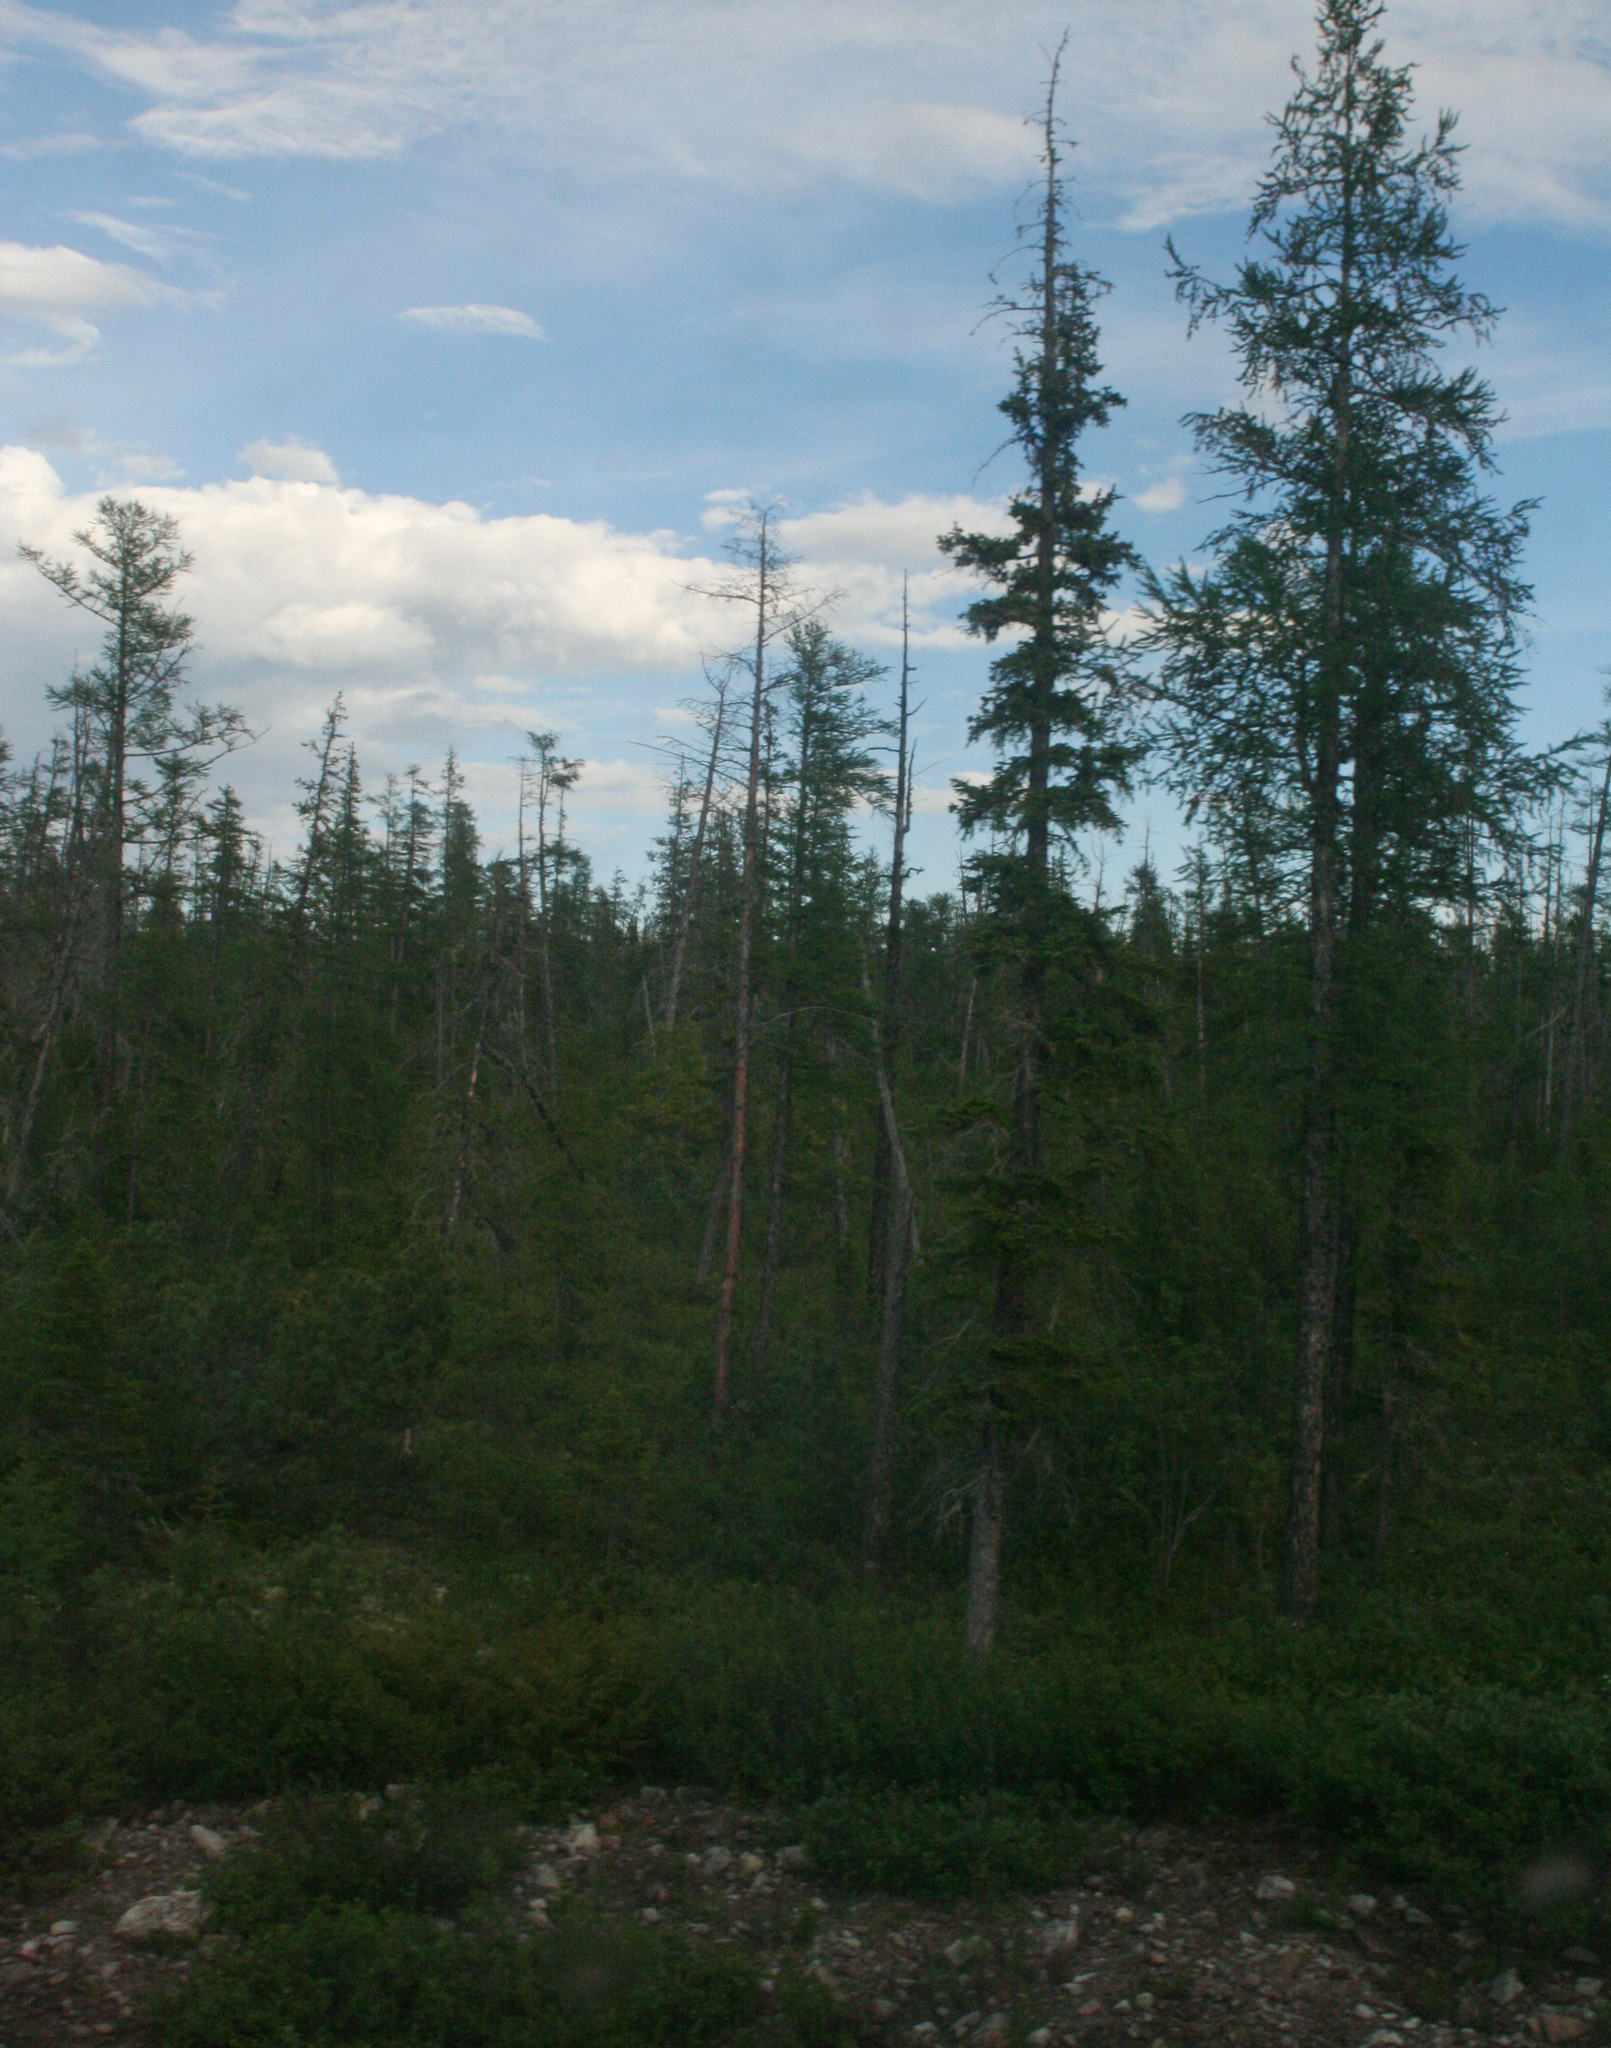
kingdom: Plantae
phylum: Tracheophyta
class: Pinopsida
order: Pinales
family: Pinaceae
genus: Picea
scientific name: Picea obovata
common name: Siberian spruce
